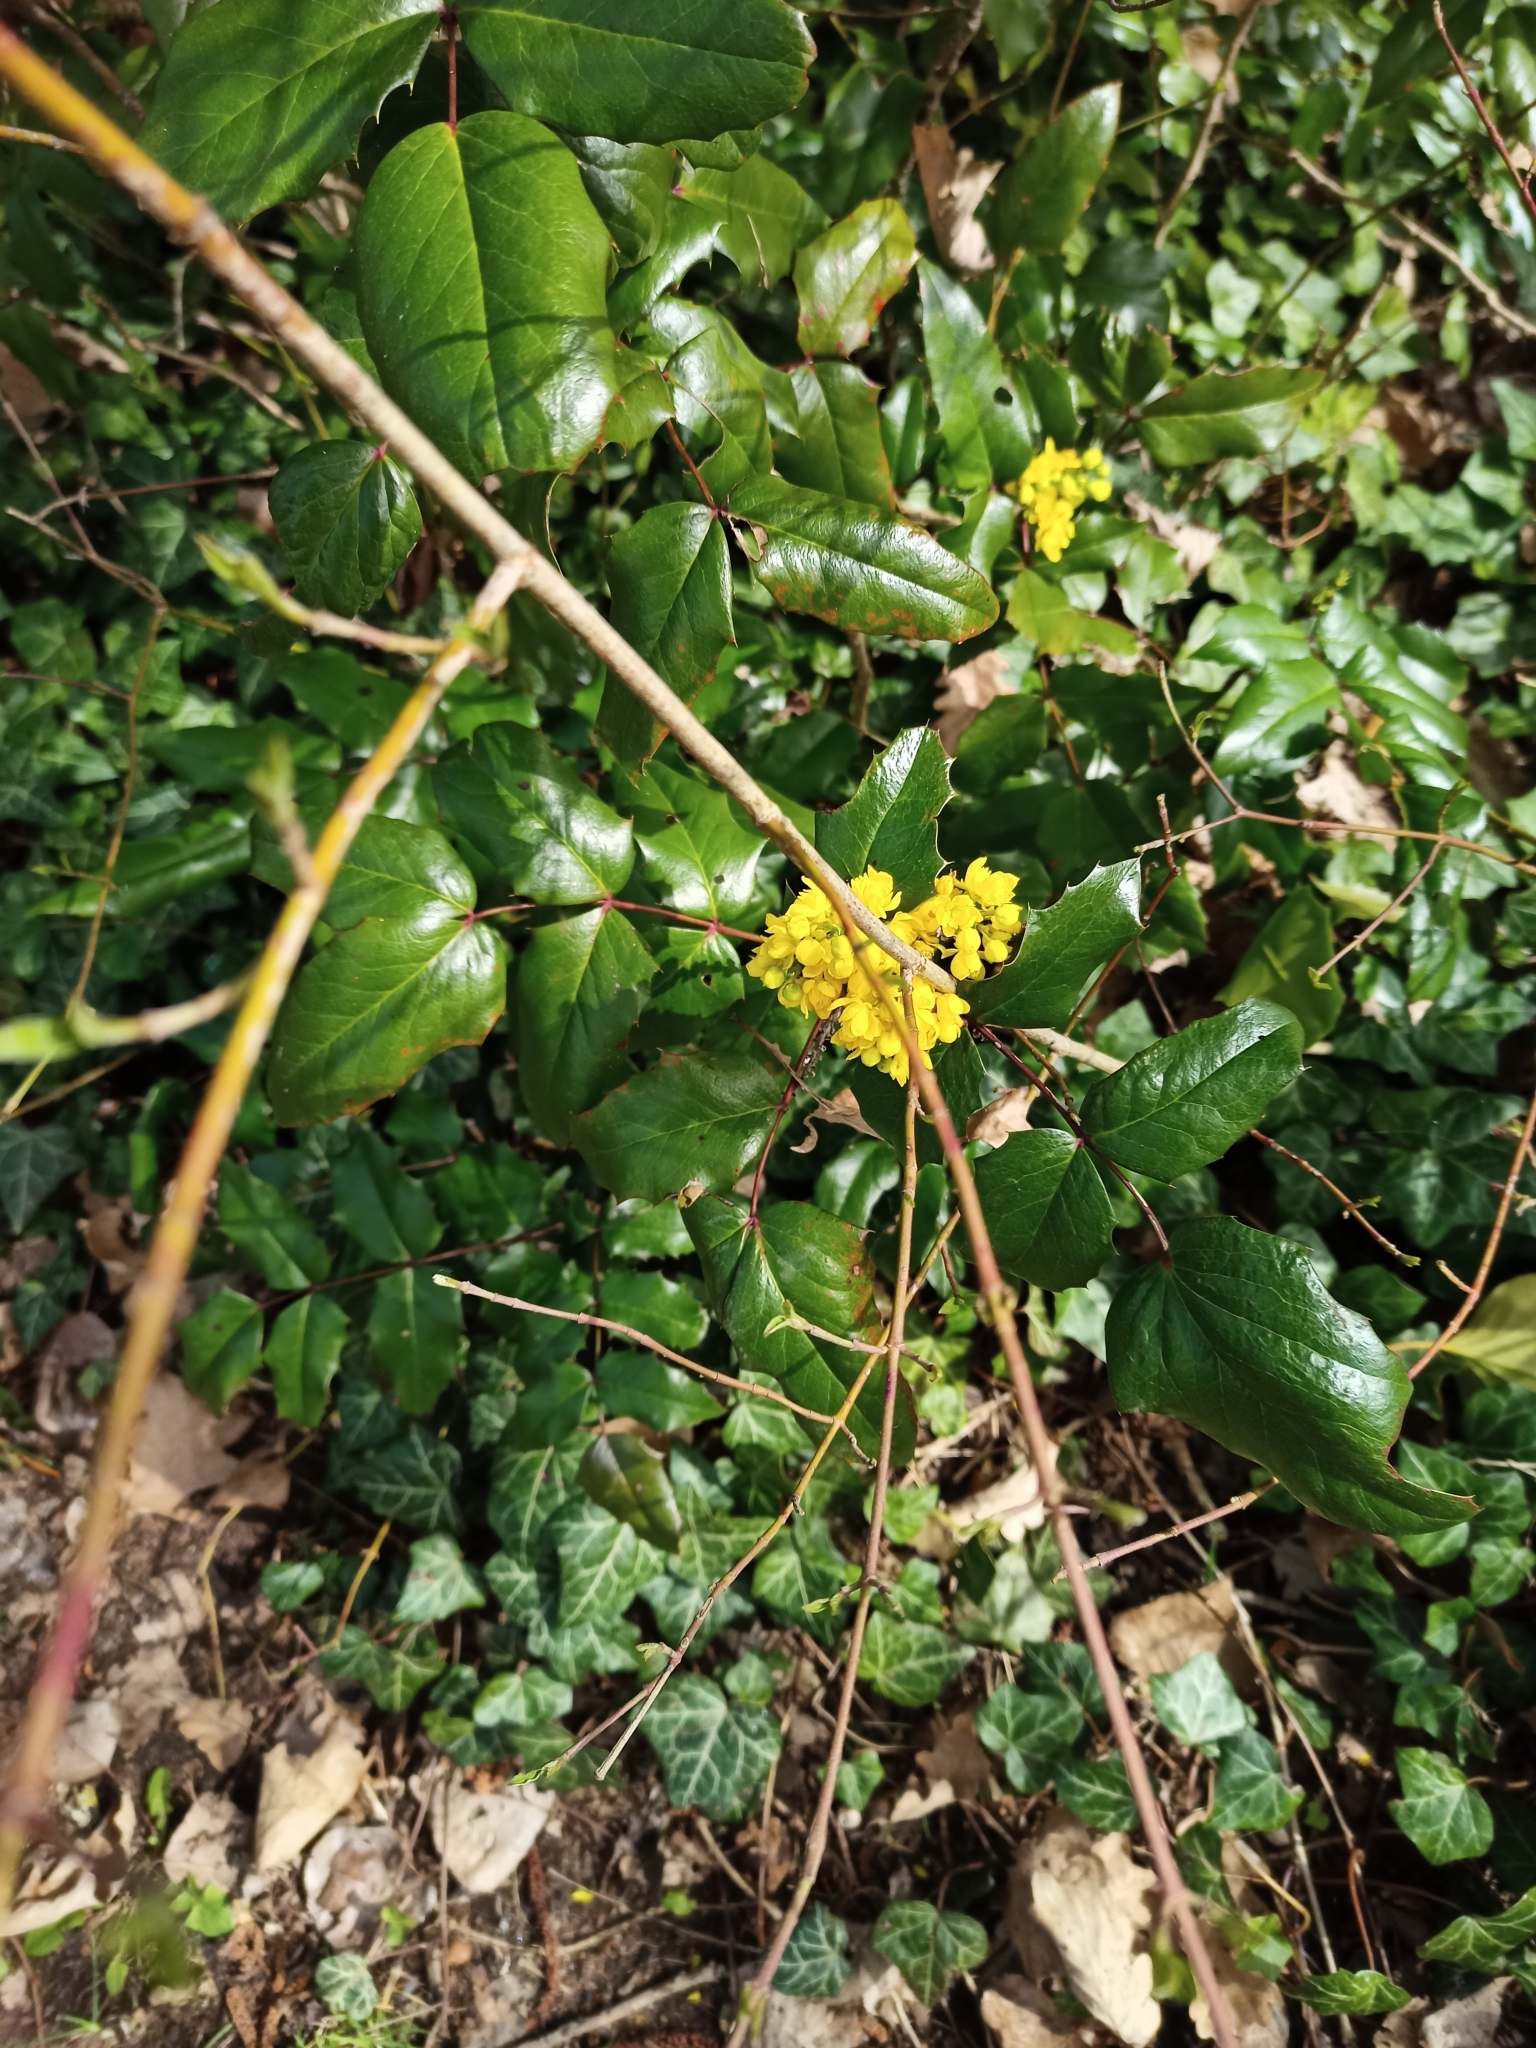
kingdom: Plantae
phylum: Tracheophyta
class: Magnoliopsida
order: Ranunculales
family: Berberidaceae
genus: Mahonia
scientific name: Mahonia aquifolium
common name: Oregon-grape
